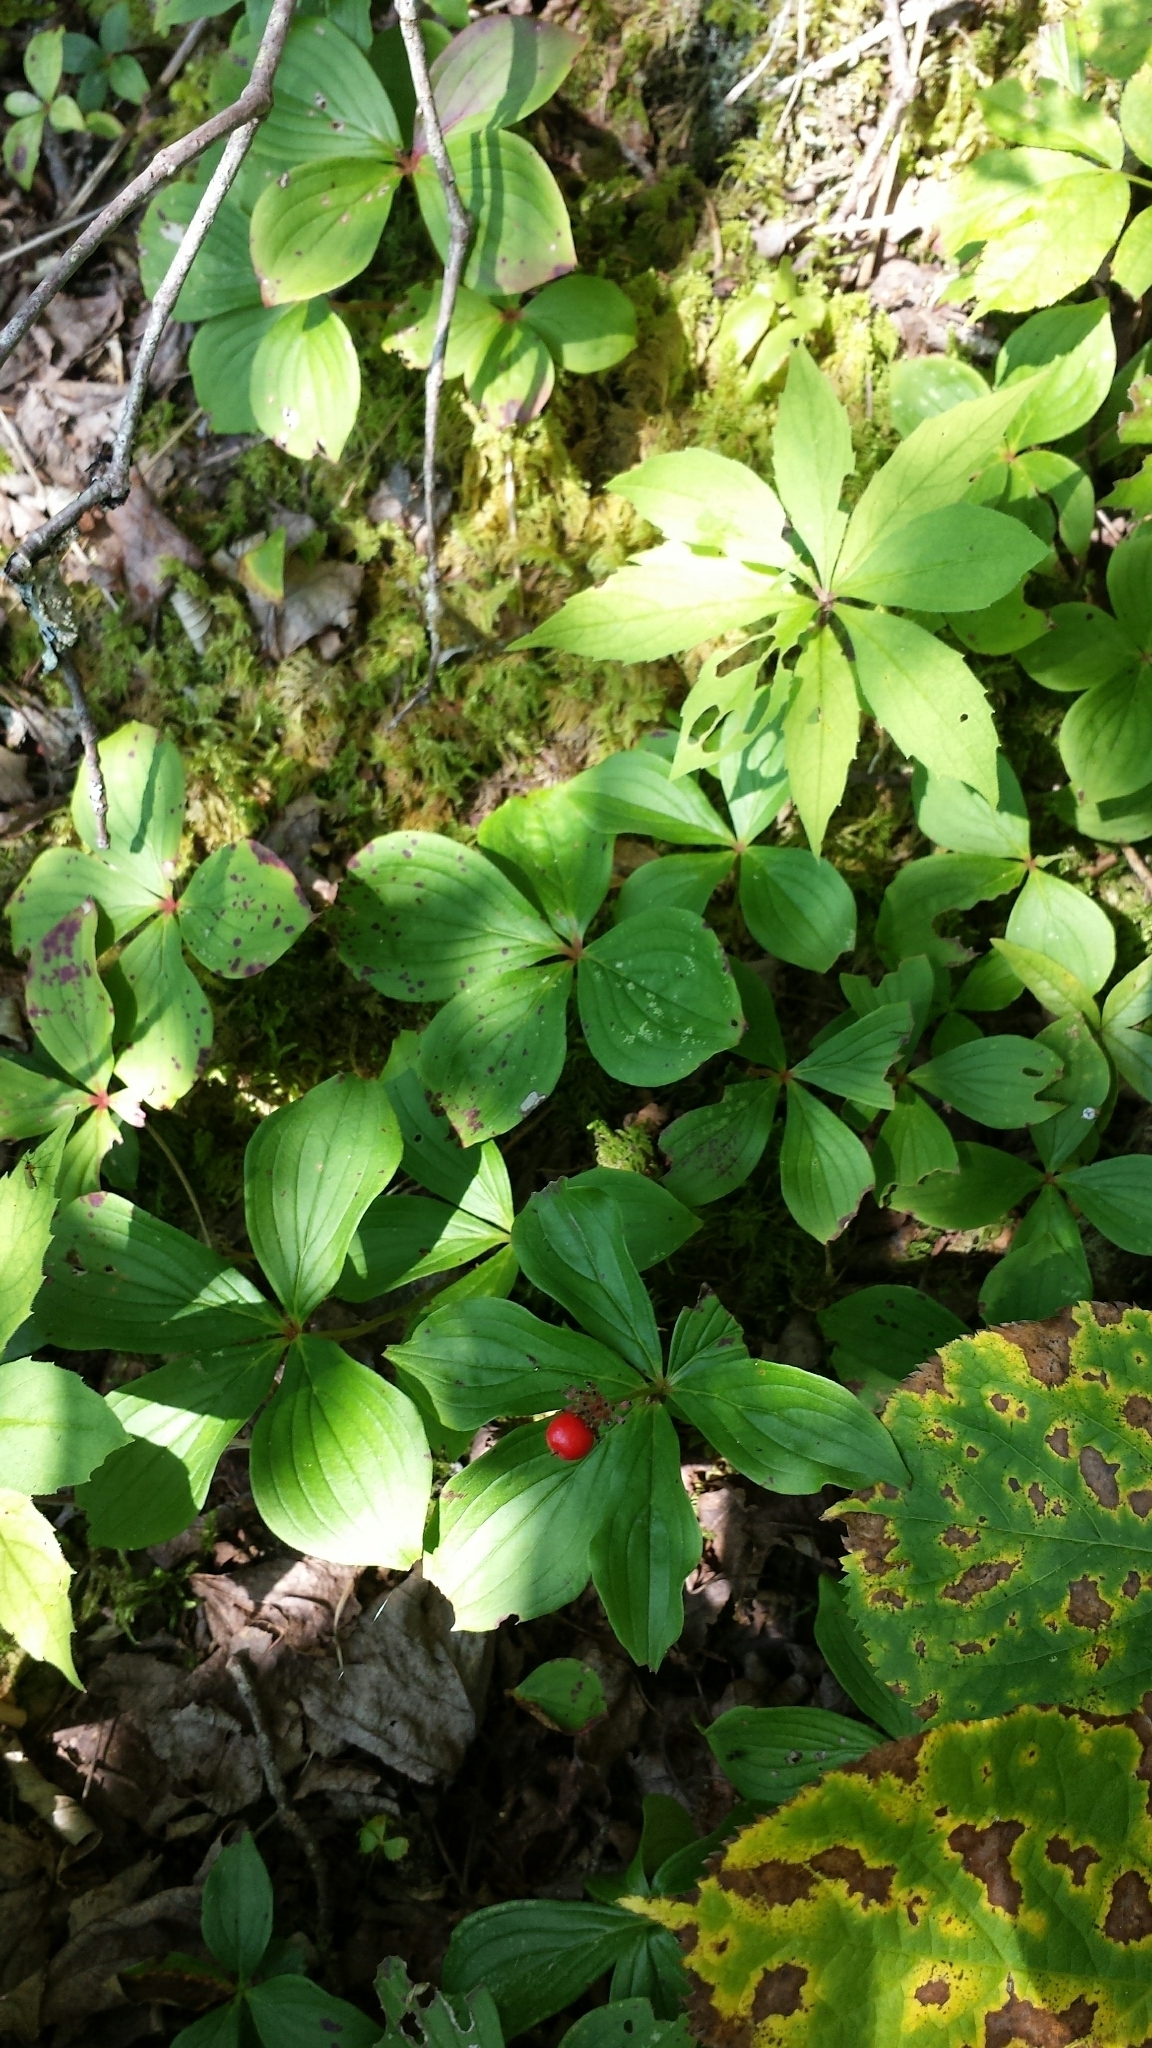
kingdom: Plantae
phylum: Tracheophyta
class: Magnoliopsida
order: Cornales
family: Cornaceae
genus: Cornus
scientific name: Cornus canadensis
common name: Creeping dogwood
